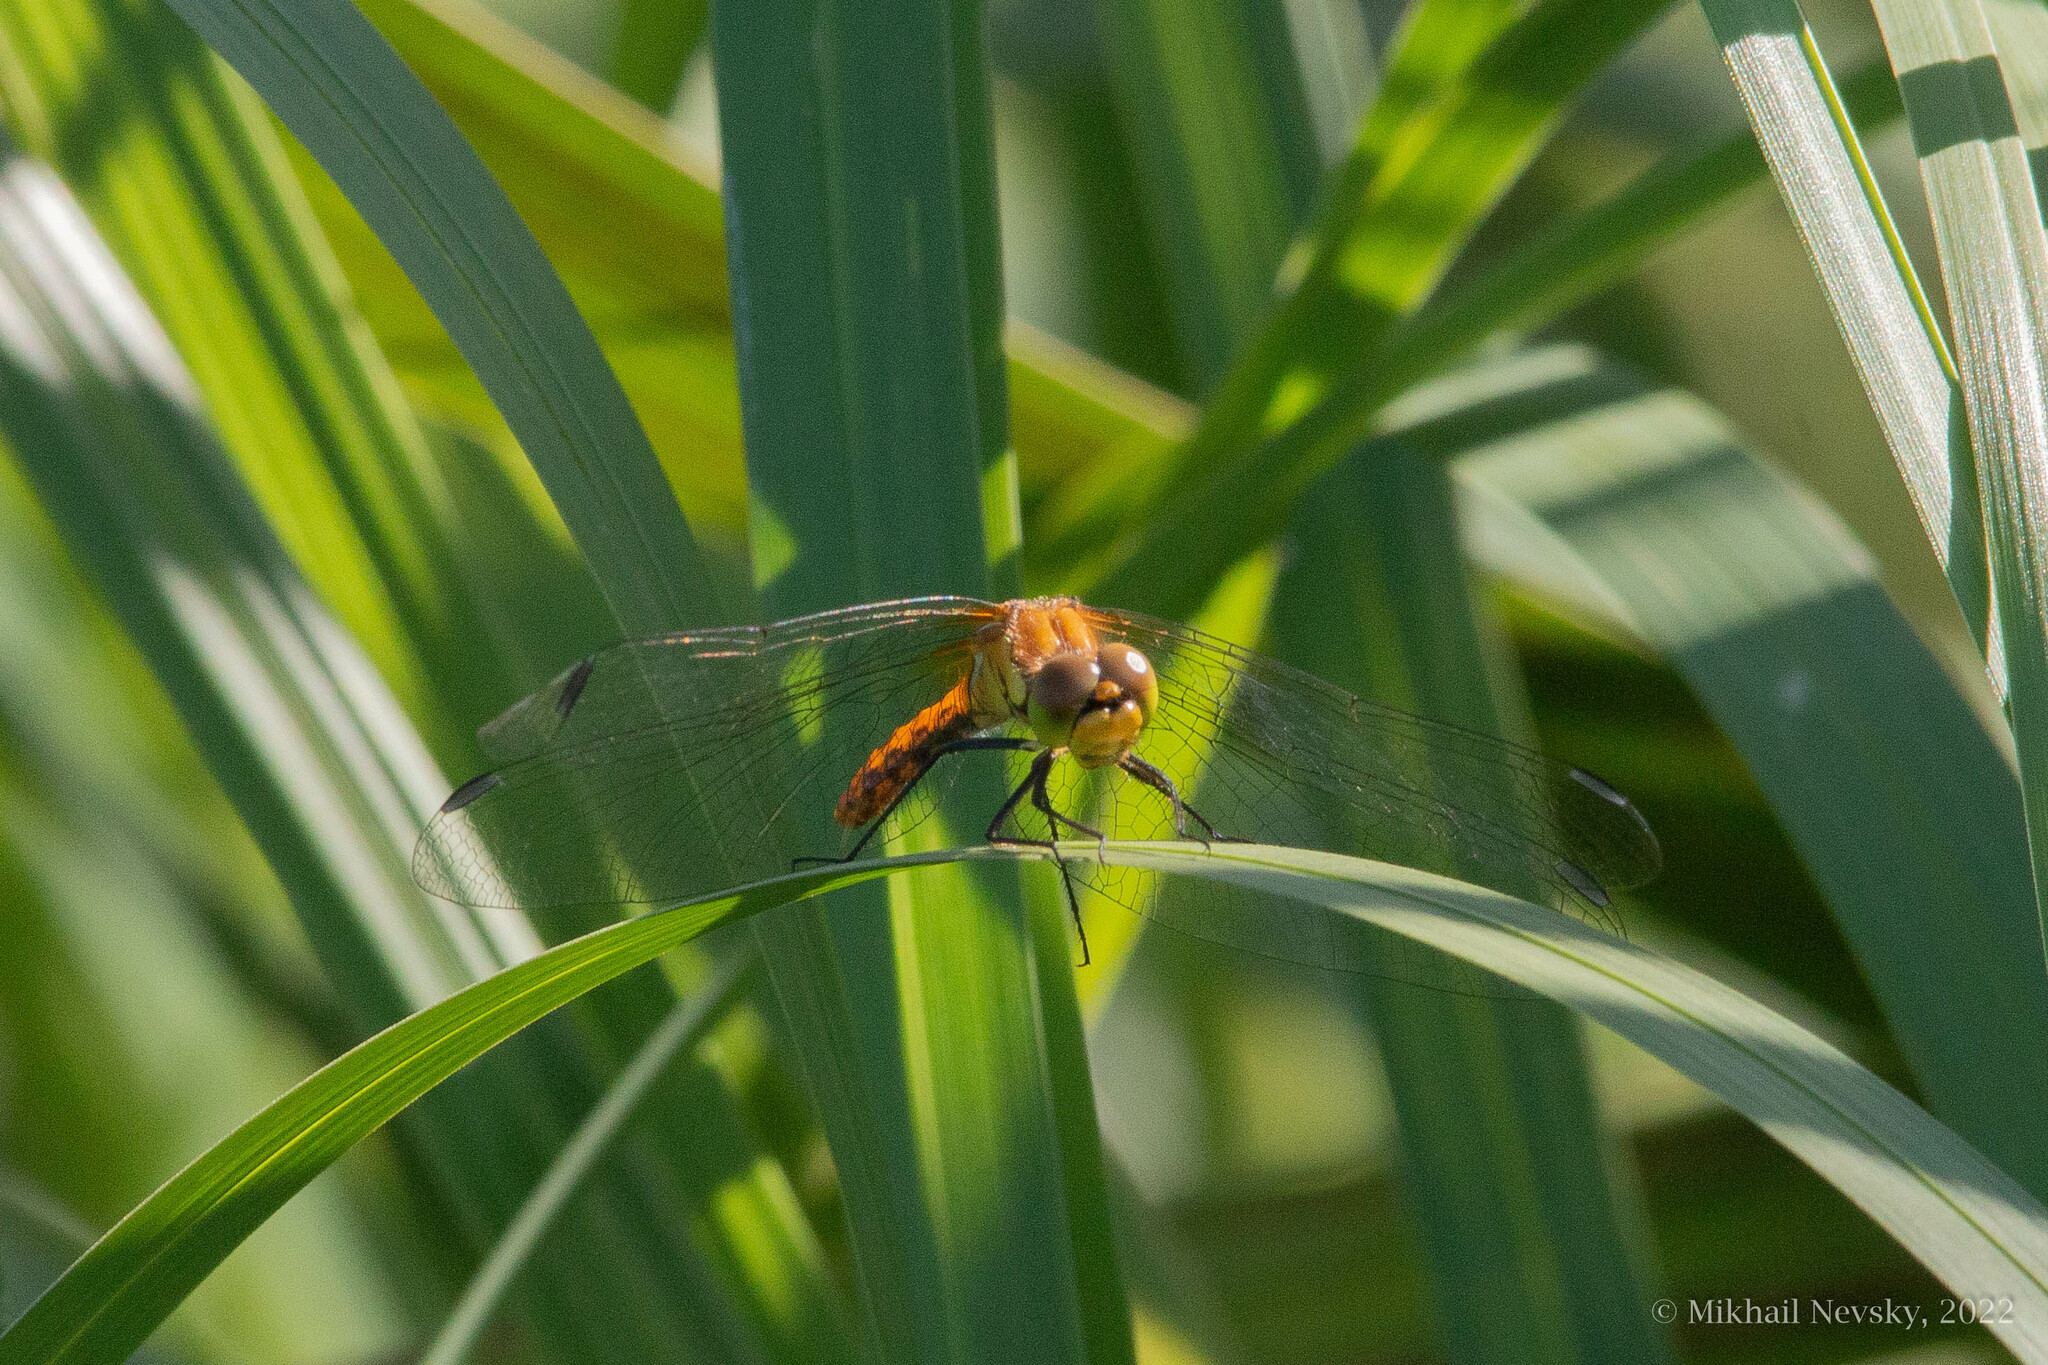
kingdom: Animalia
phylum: Arthropoda
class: Insecta
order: Odonata
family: Libellulidae
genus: Sympetrum
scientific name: Sympetrum sanguineum
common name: Ruddy darter
